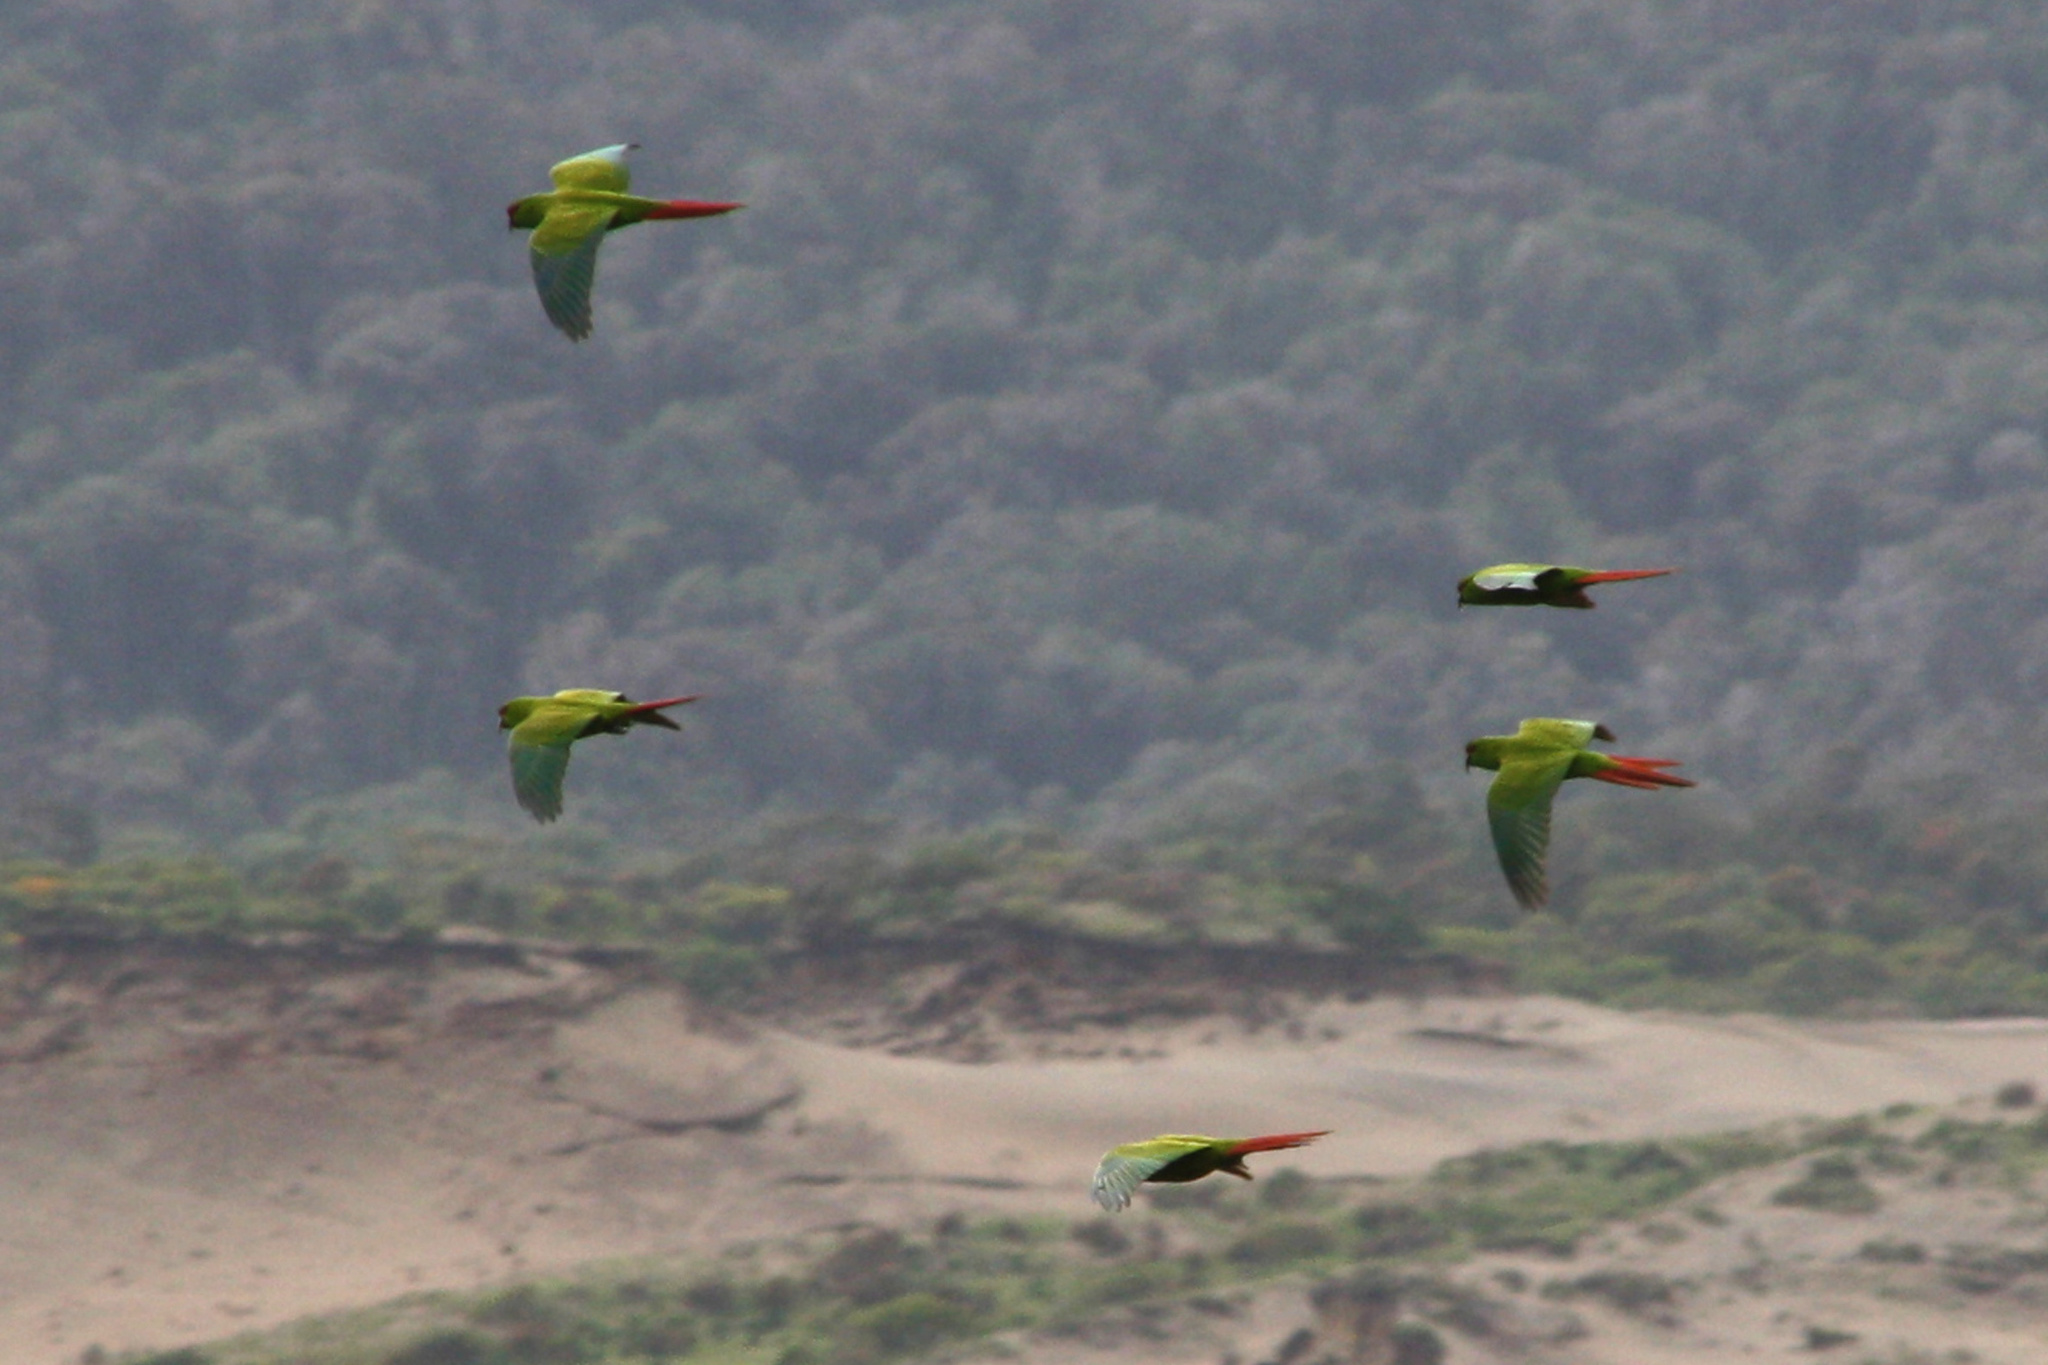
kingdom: Animalia
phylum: Chordata
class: Aves
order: Psittaciformes
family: Psittacidae
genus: Enicognathus
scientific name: Enicognathus leptorhynchus
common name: Slender-billed parakeet
